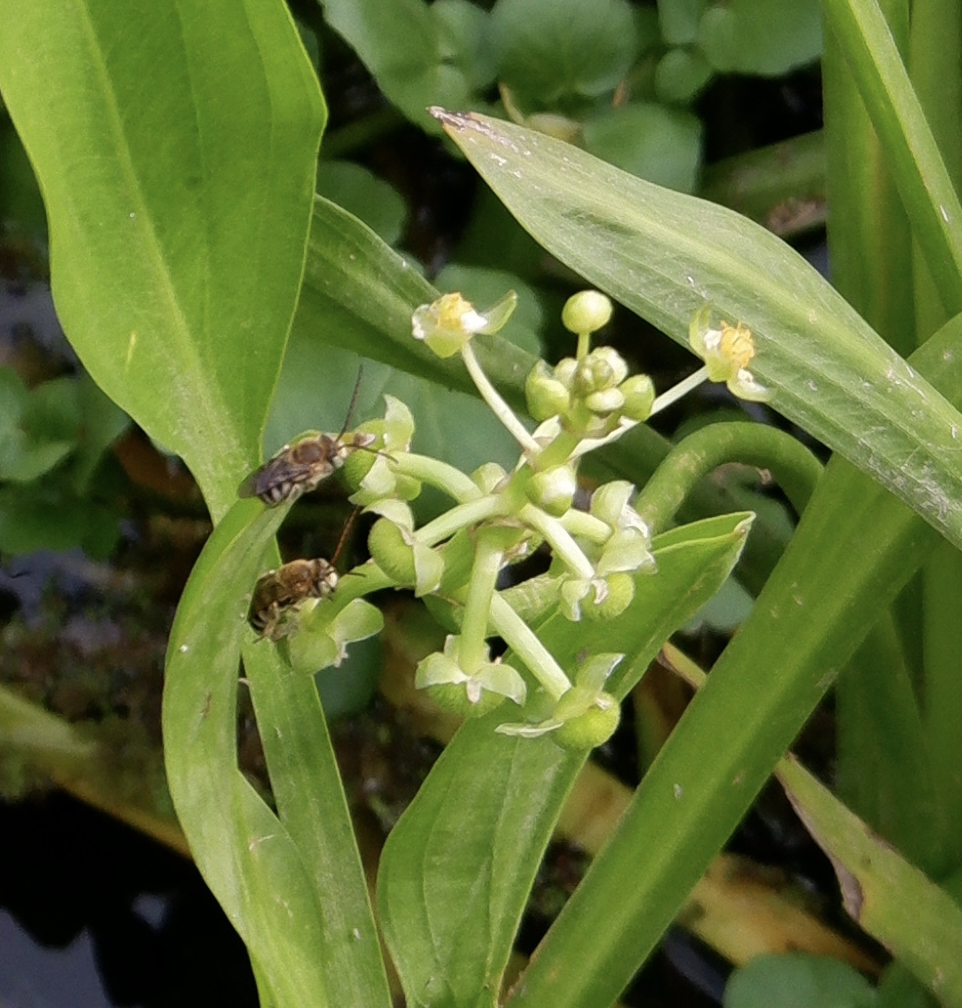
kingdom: Plantae
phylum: Tracheophyta
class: Liliopsida
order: Alismatales
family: Alismataceae
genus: Sagittaria
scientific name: Sagittaria platyphylla
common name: Broad-leaf arrowhead
